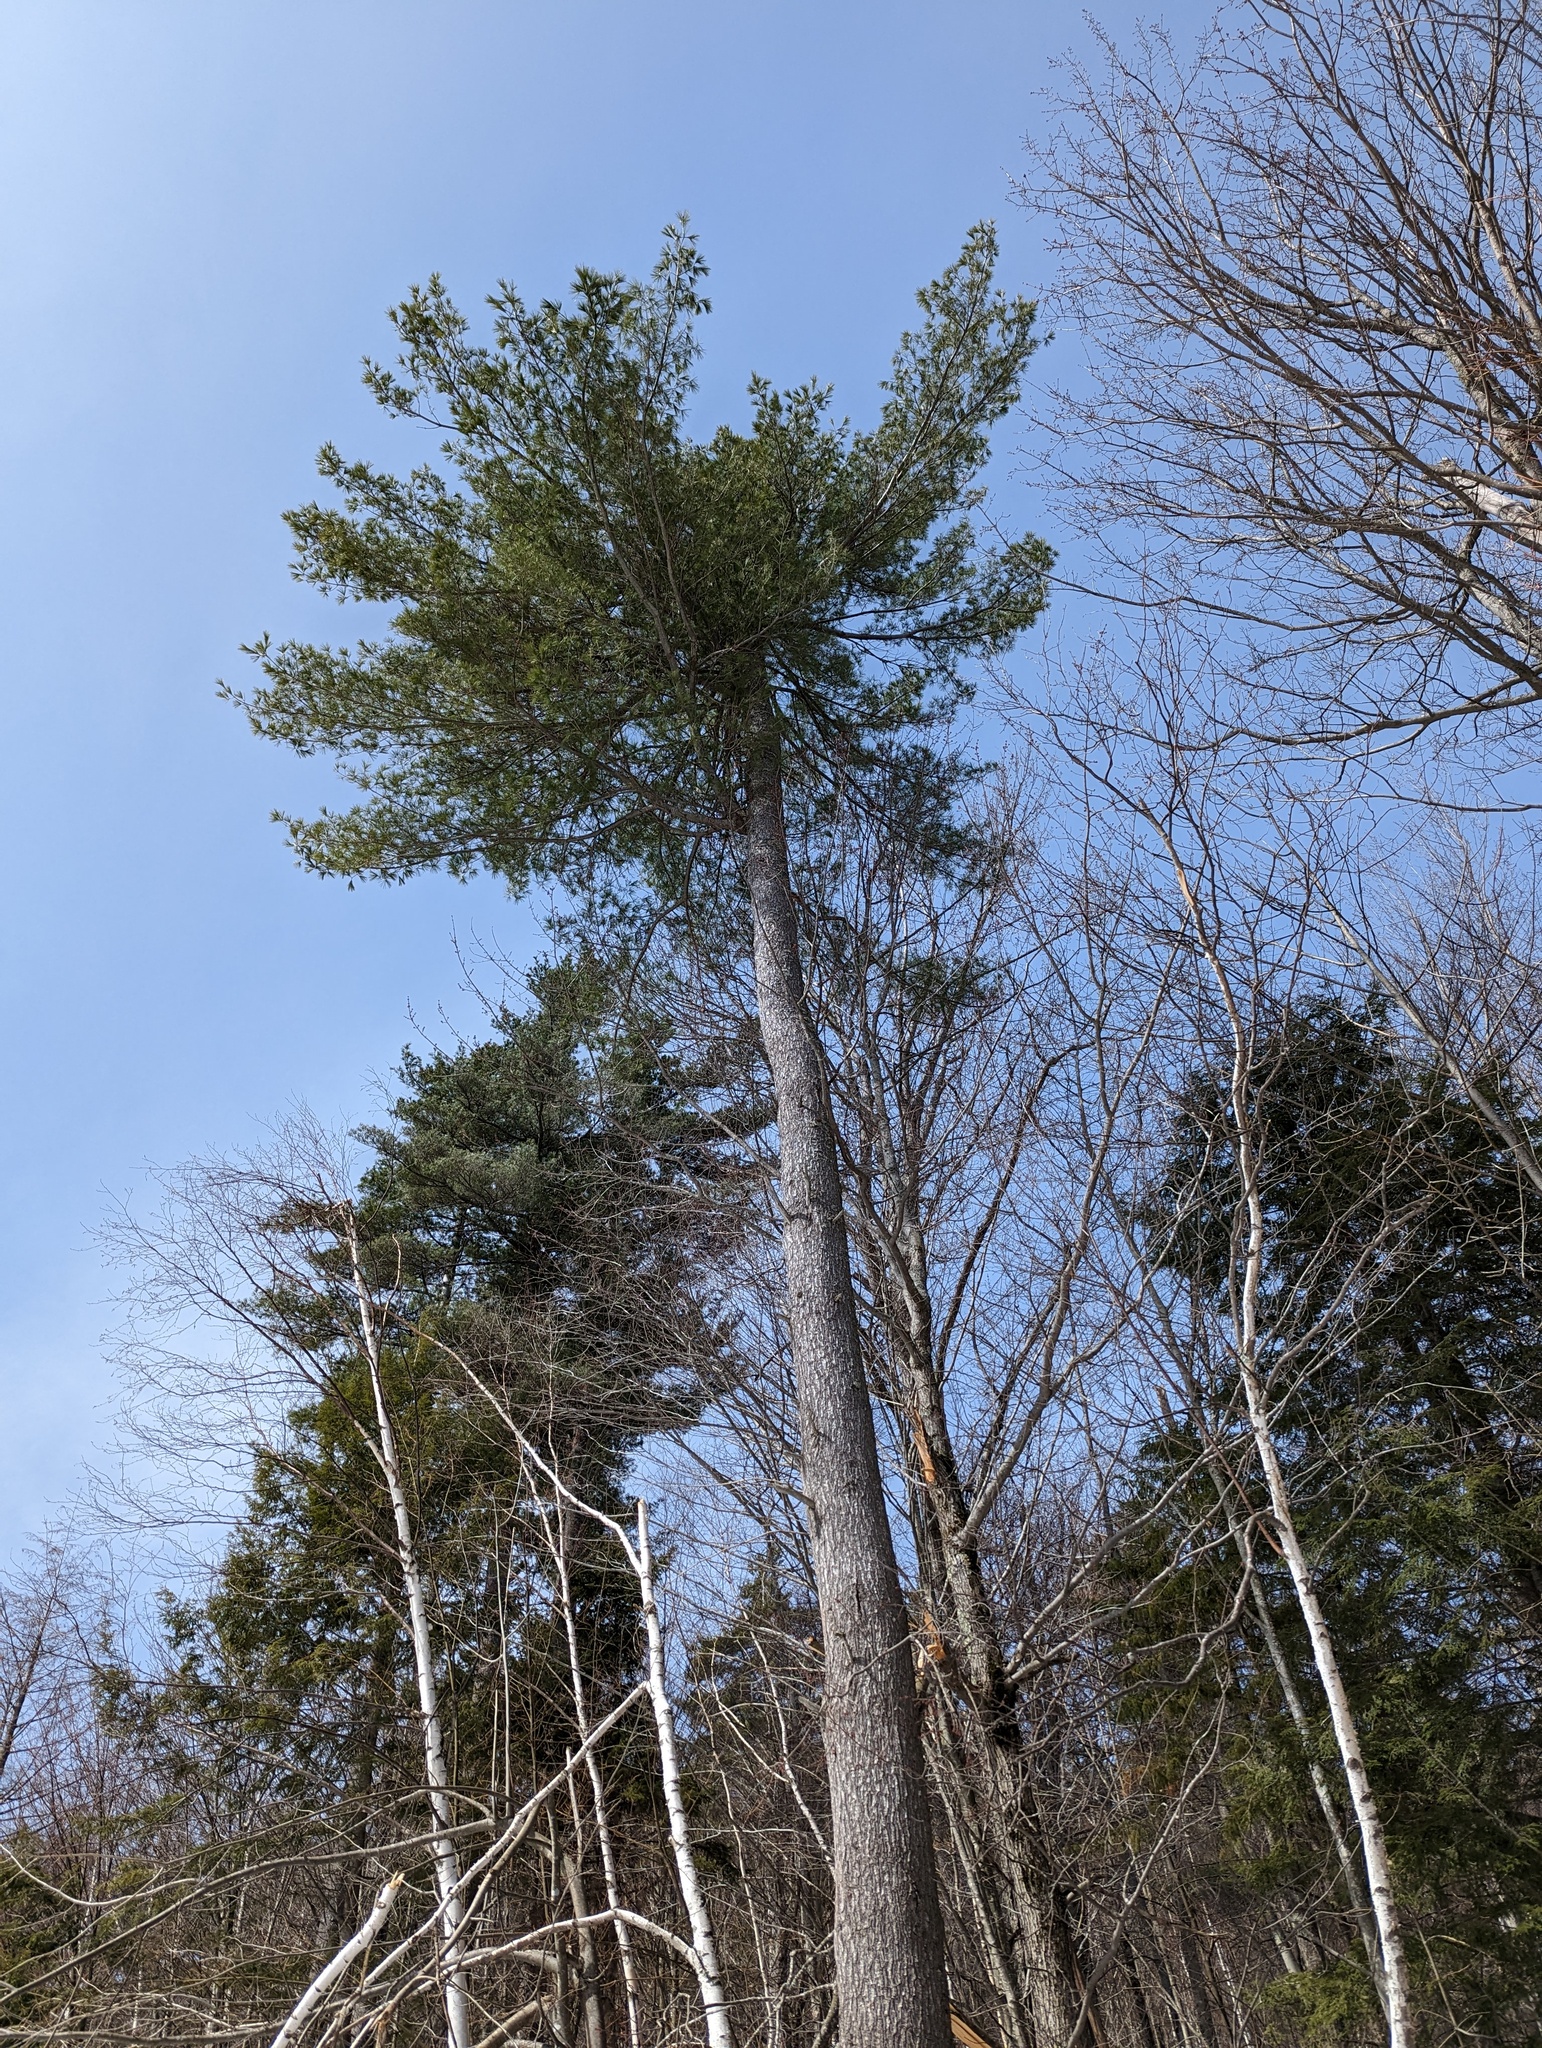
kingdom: Plantae
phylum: Tracheophyta
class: Pinopsida
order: Pinales
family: Pinaceae
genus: Pinus
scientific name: Pinus strobus
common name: Weymouth pine
